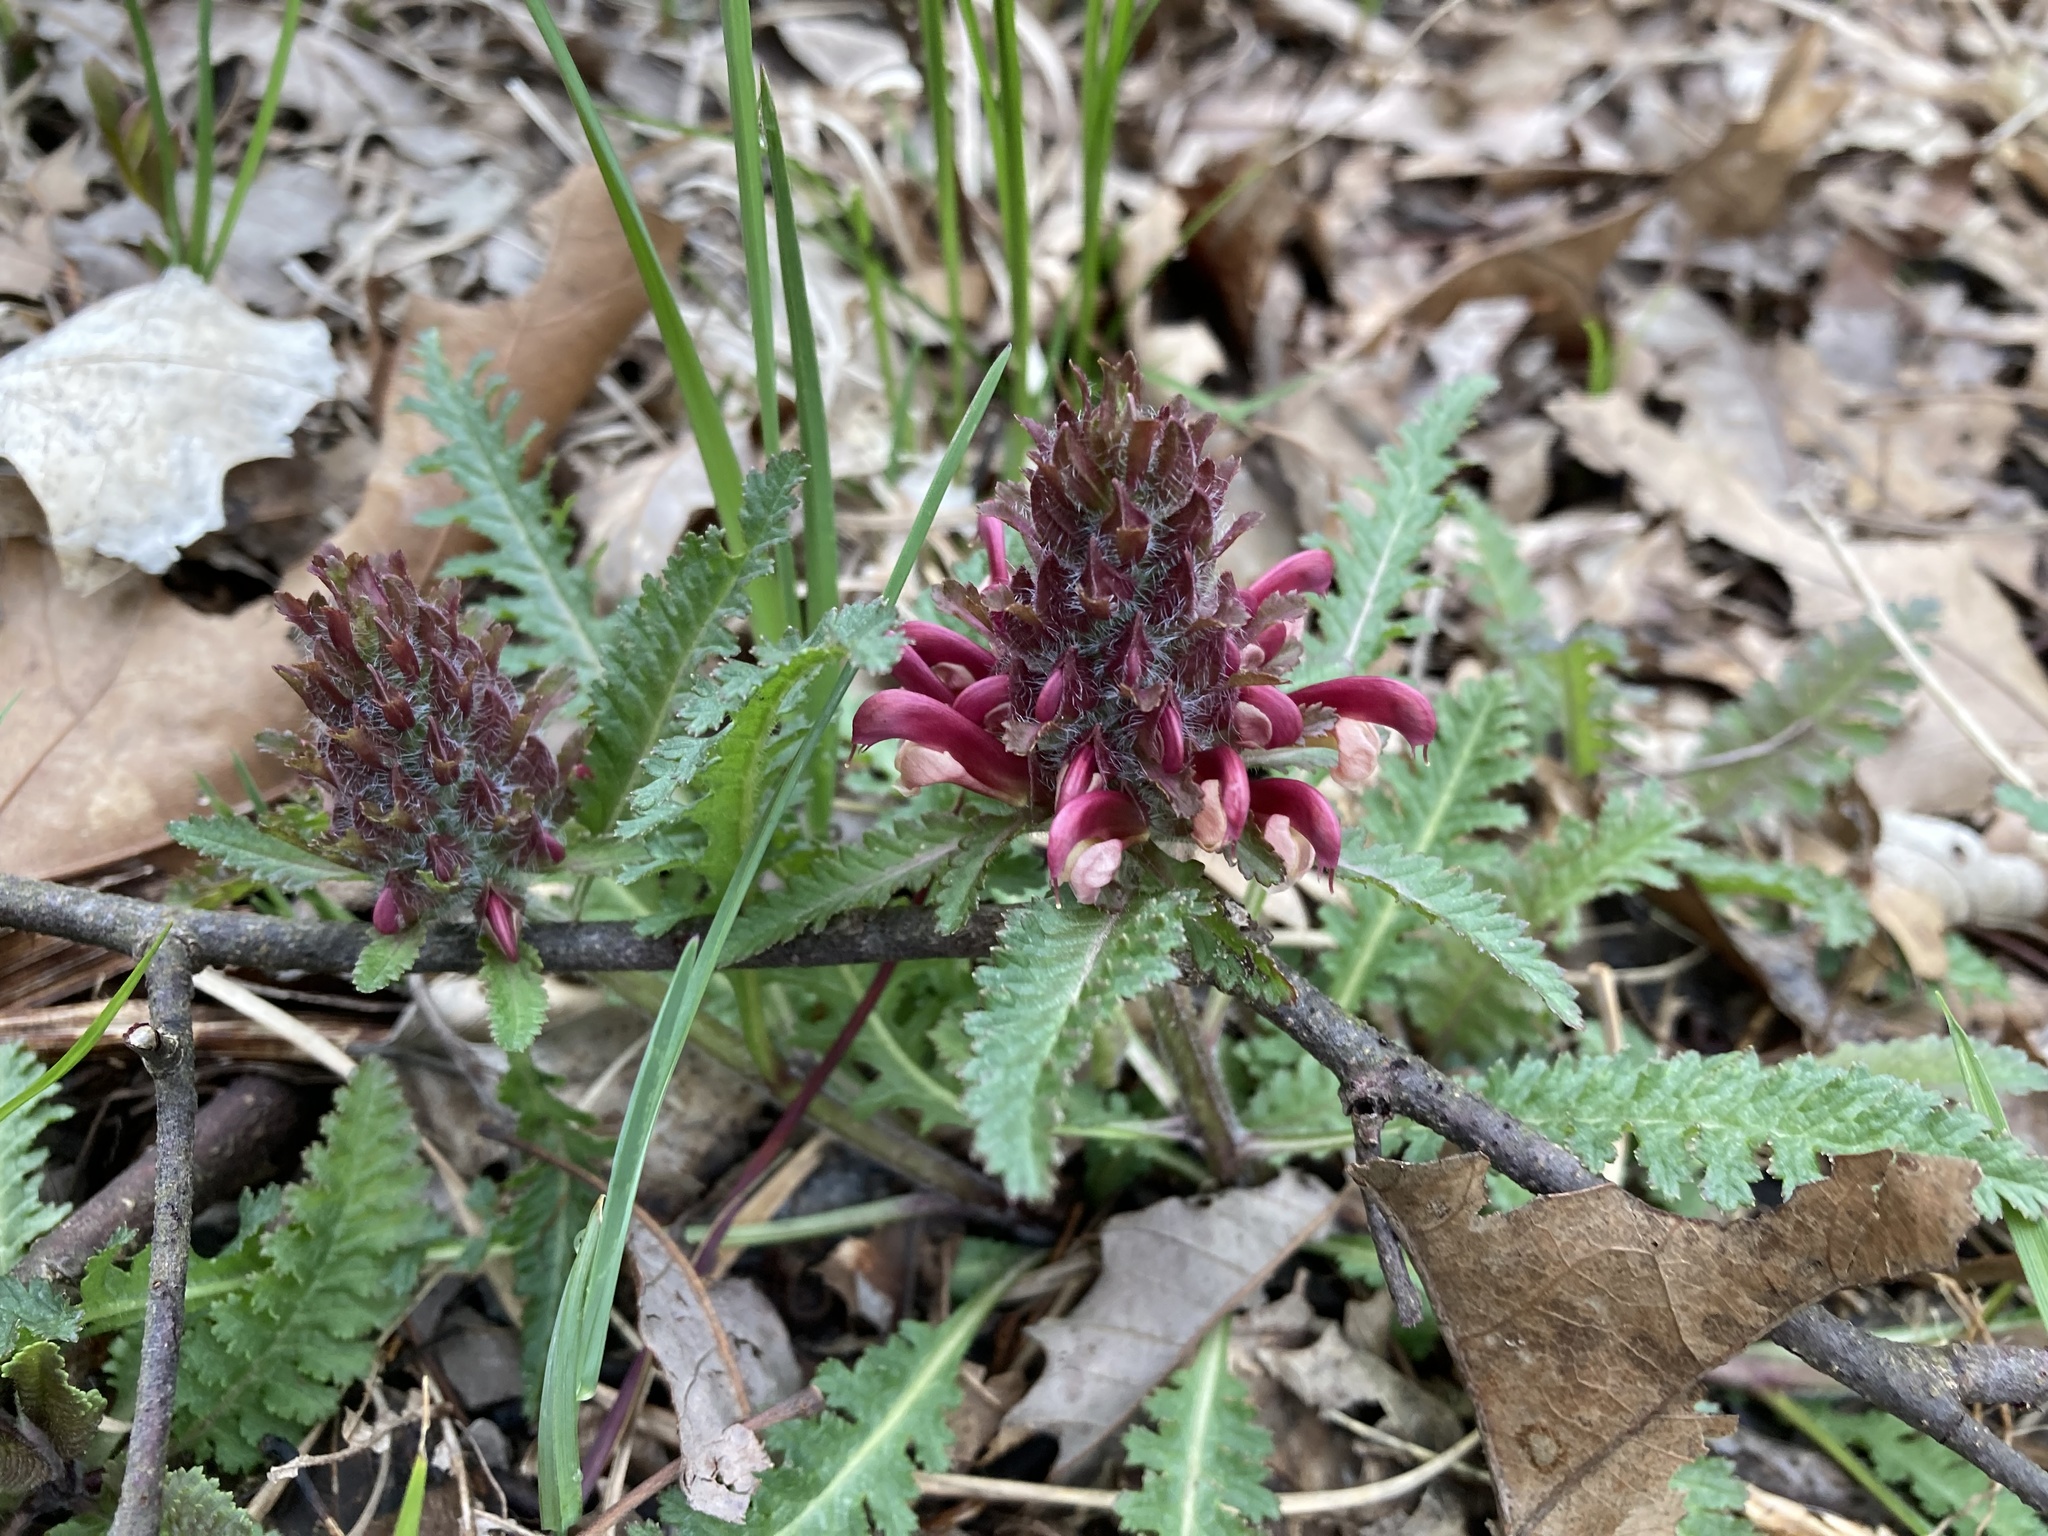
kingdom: Plantae
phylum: Tracheophyta
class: Magnoliopsida
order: Lamiales
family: Orobanchaceae
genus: Pedicularis
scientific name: Pedicularis canadensis
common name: Early lousewort
